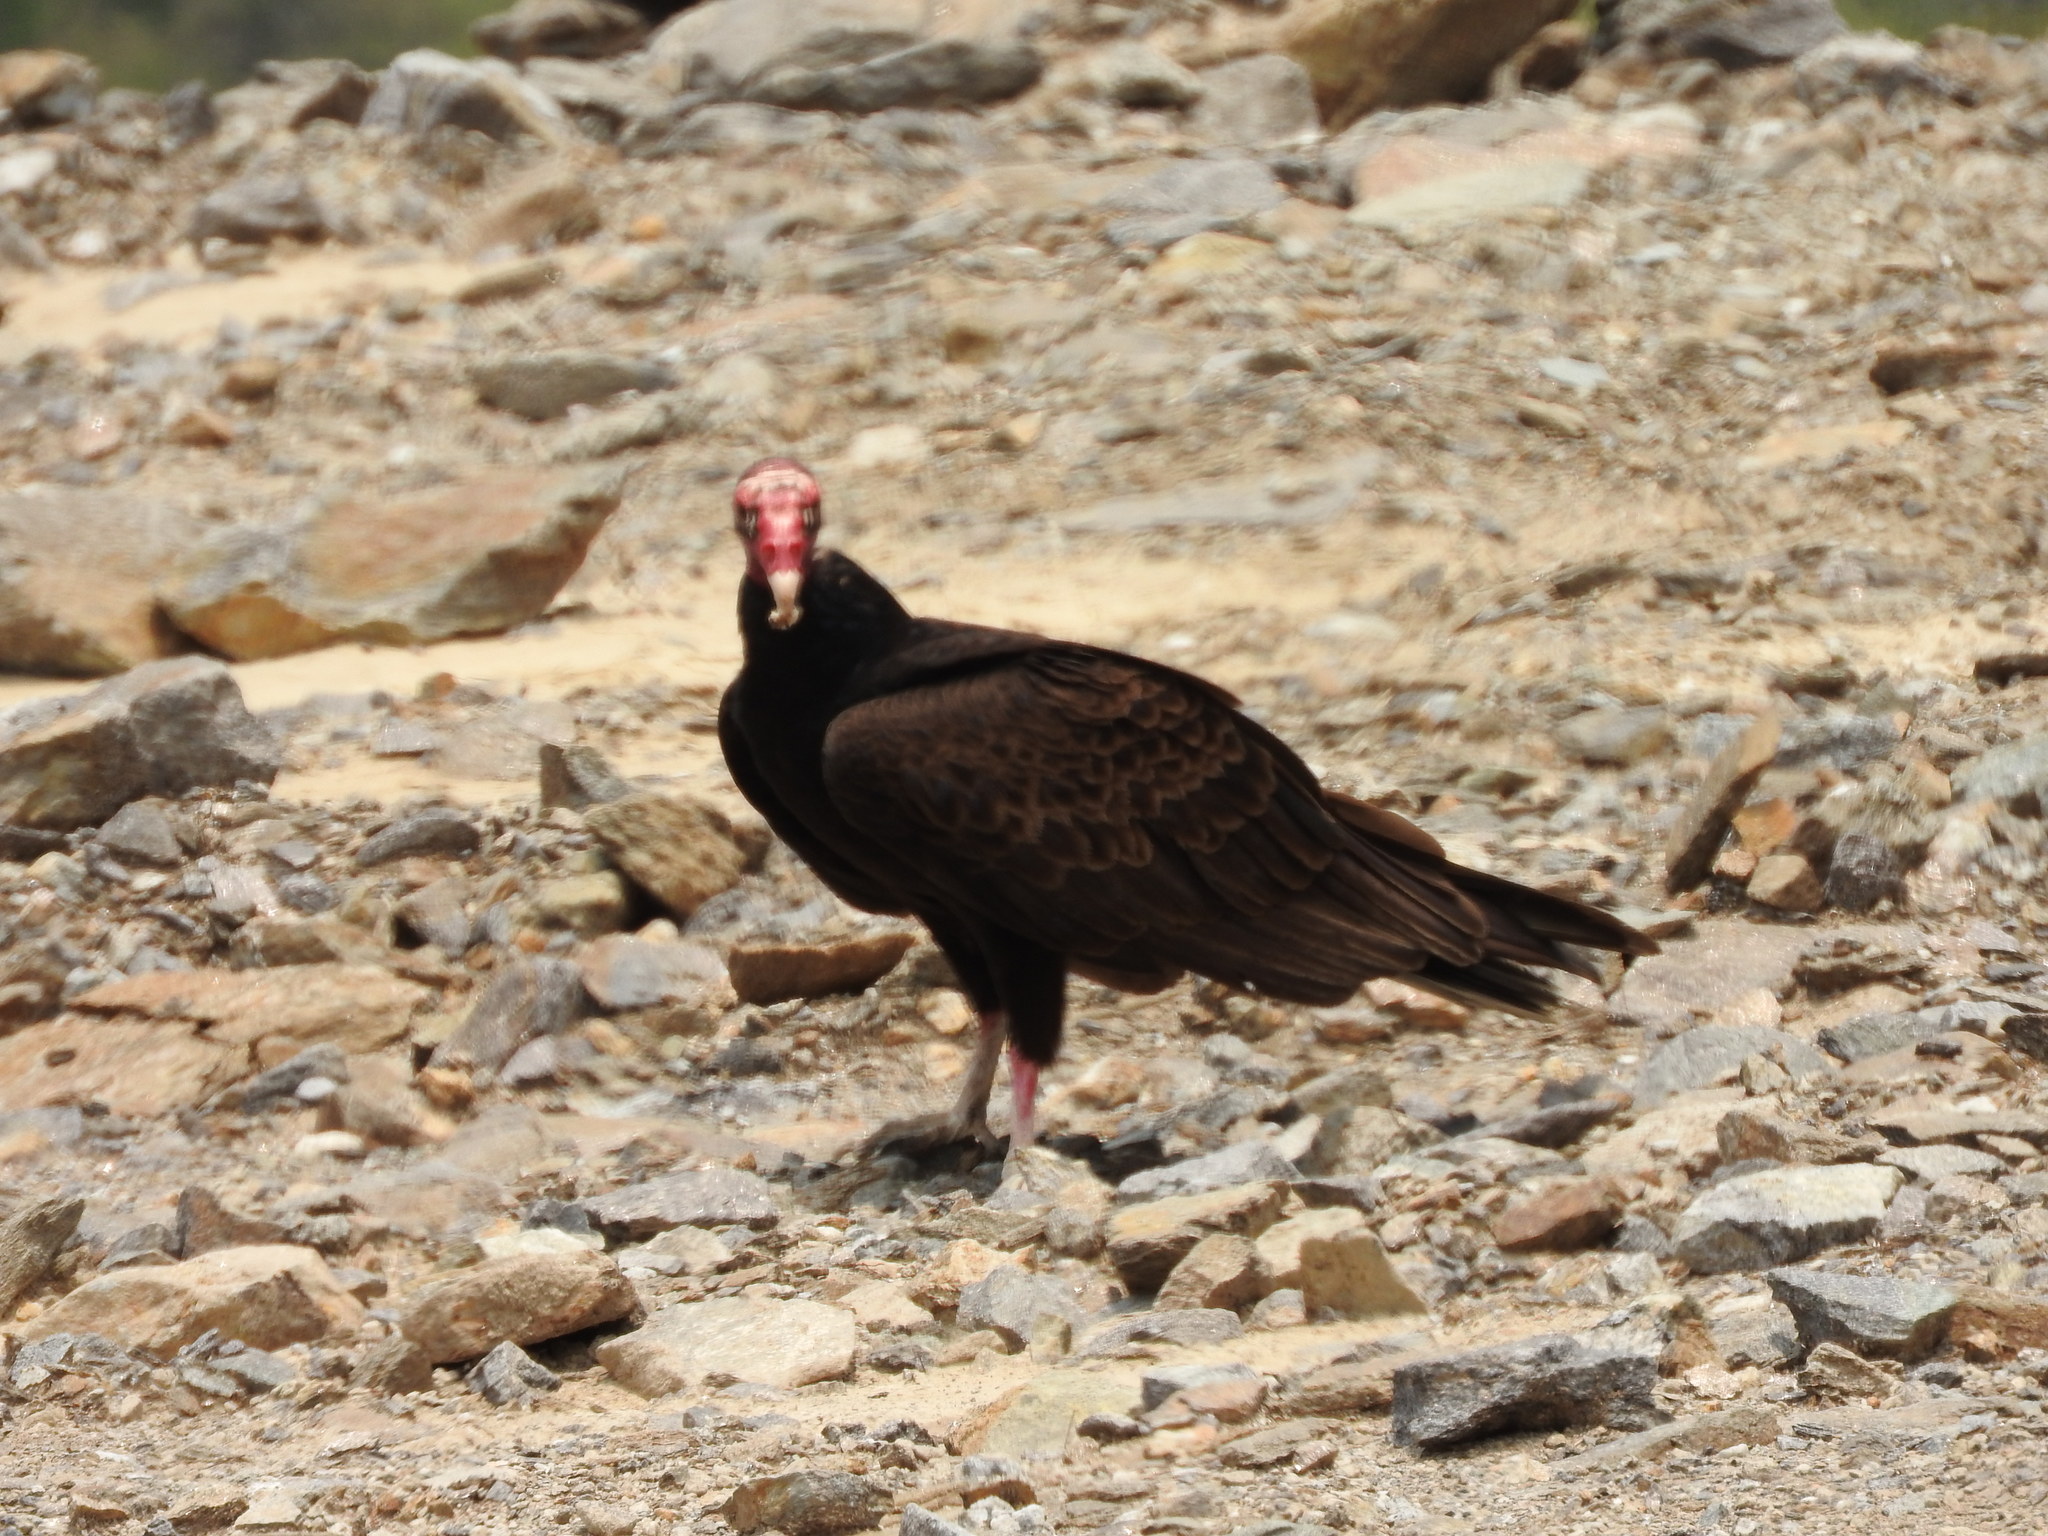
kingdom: Animalia
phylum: Chordata
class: Aves
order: Accipitriformes
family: Cathartidae
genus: Cathartes
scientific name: Cathartes aura
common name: Turkey vulture
